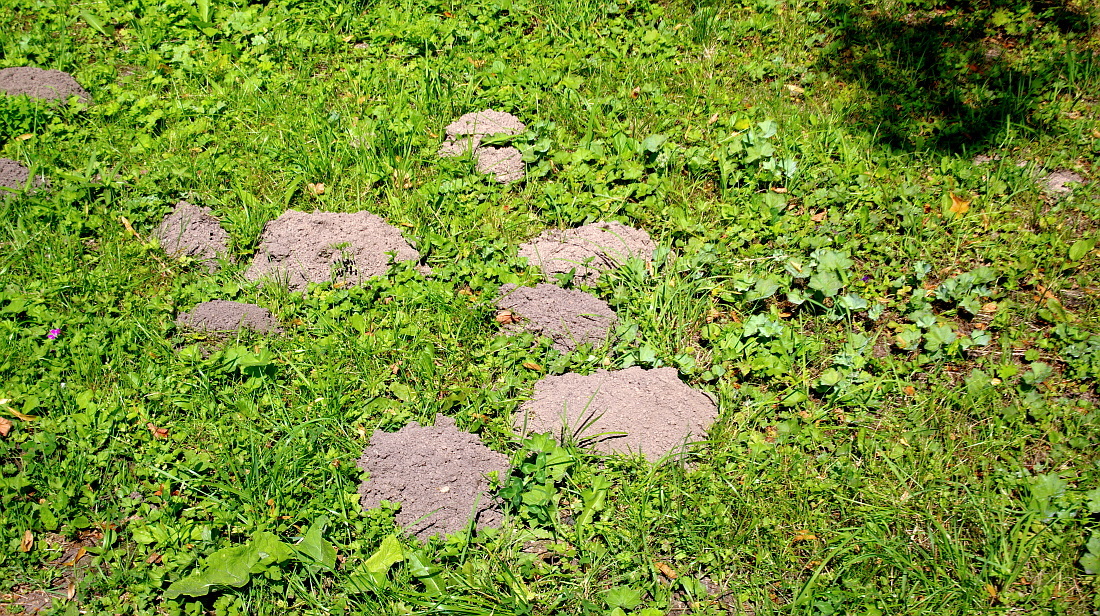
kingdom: Animalia
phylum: Chordata
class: Mammalia
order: Soricomorpha
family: Talpidae
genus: Talpa
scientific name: Talpa europaea
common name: European mole
